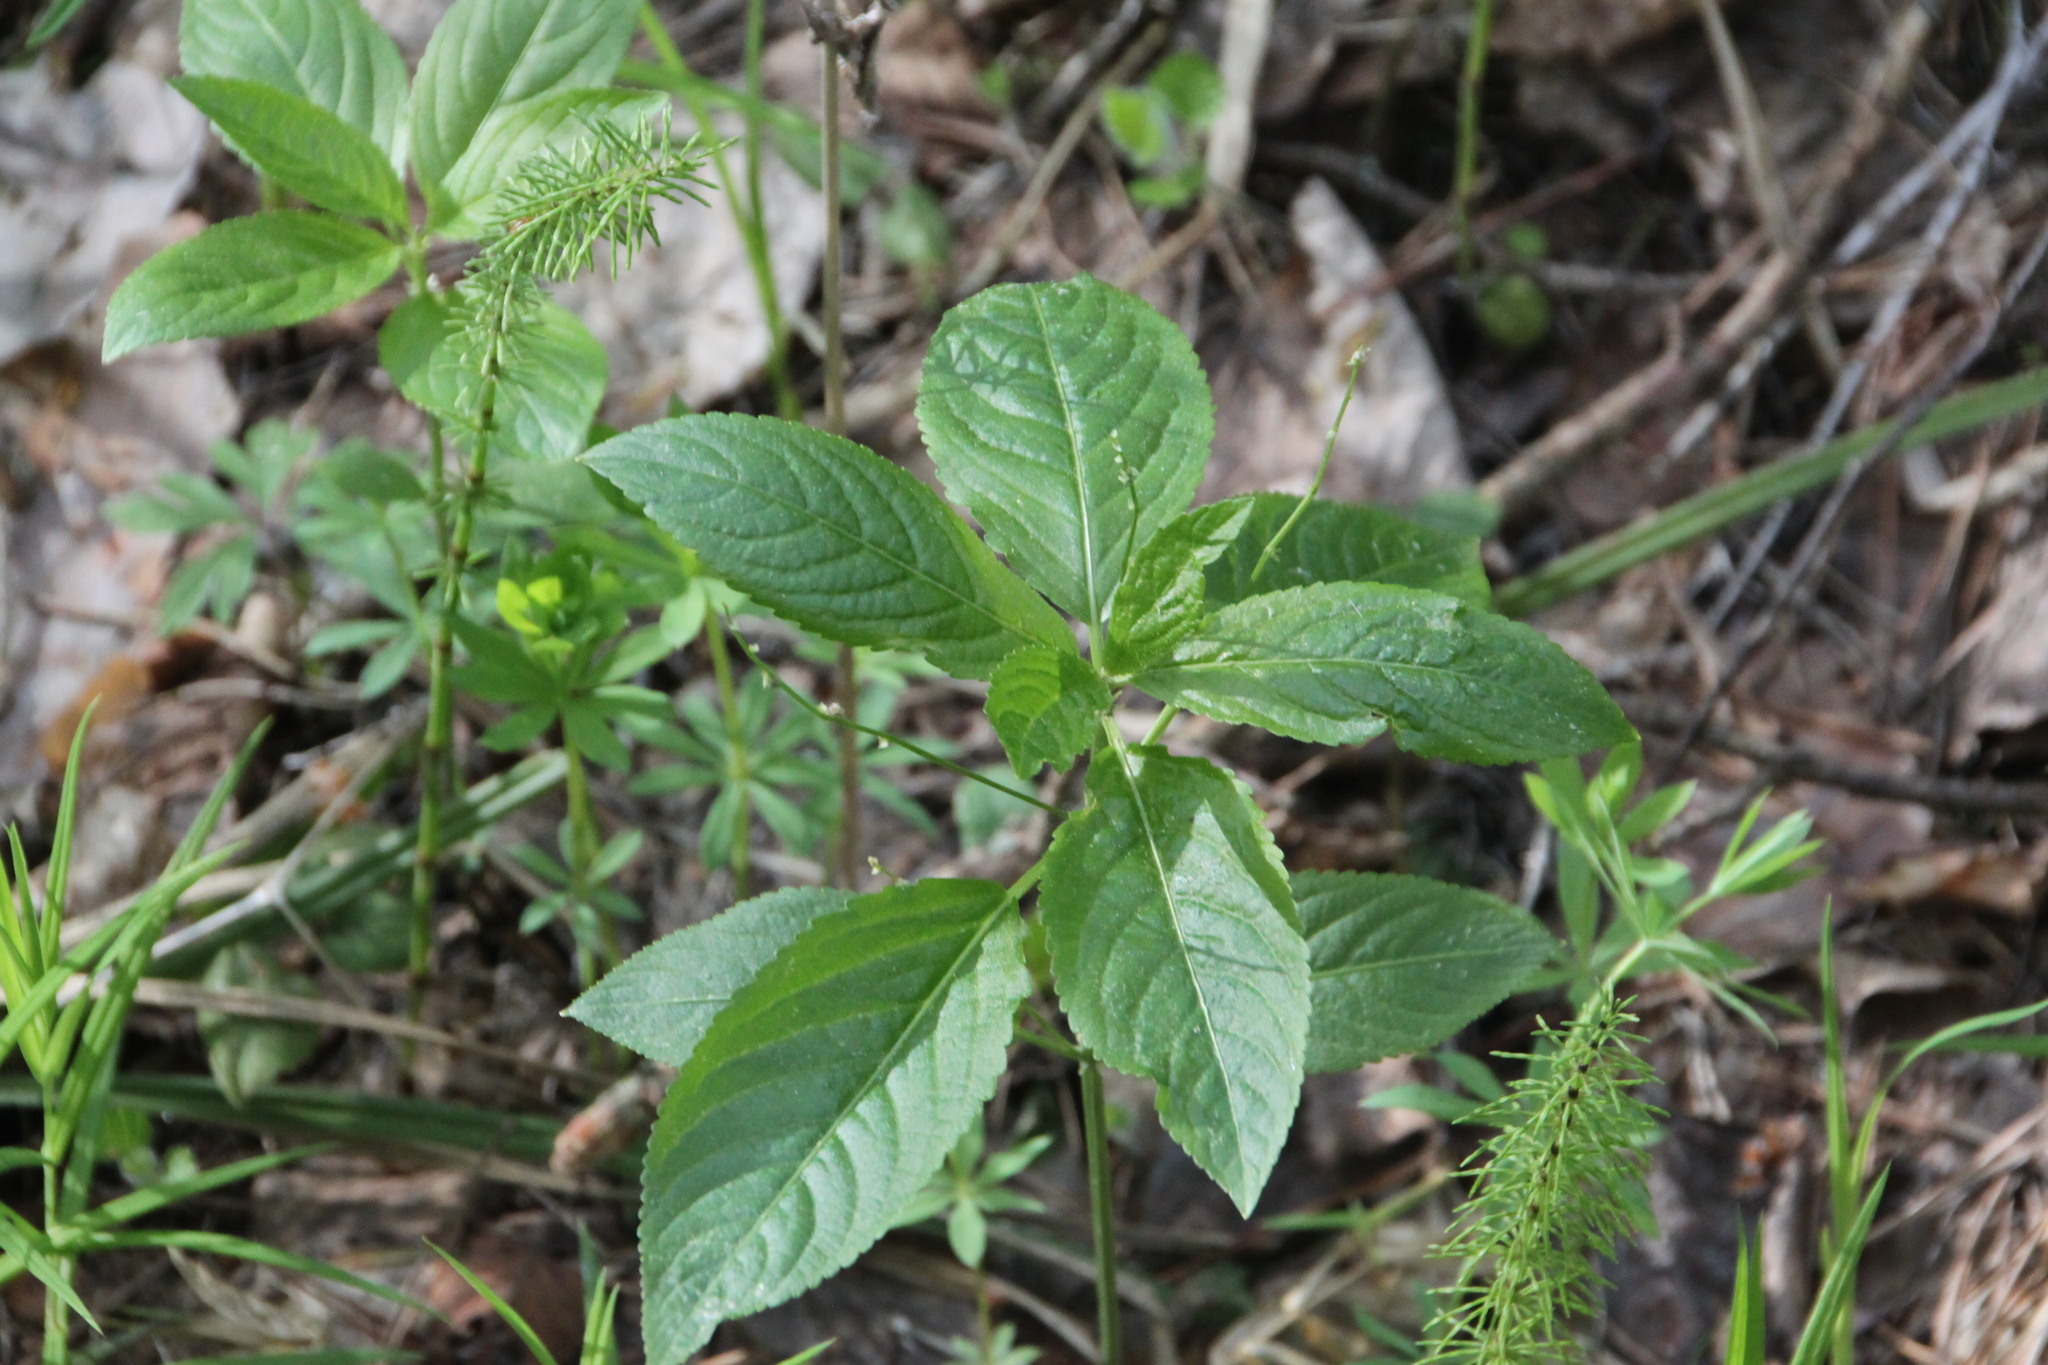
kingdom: Plantae
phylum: Tracheophyta
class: Magnoliopsida
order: Malpighiales
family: Euphorbiaceae
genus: Mercurialis
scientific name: Mercurialis perennis
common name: Dog mercury
